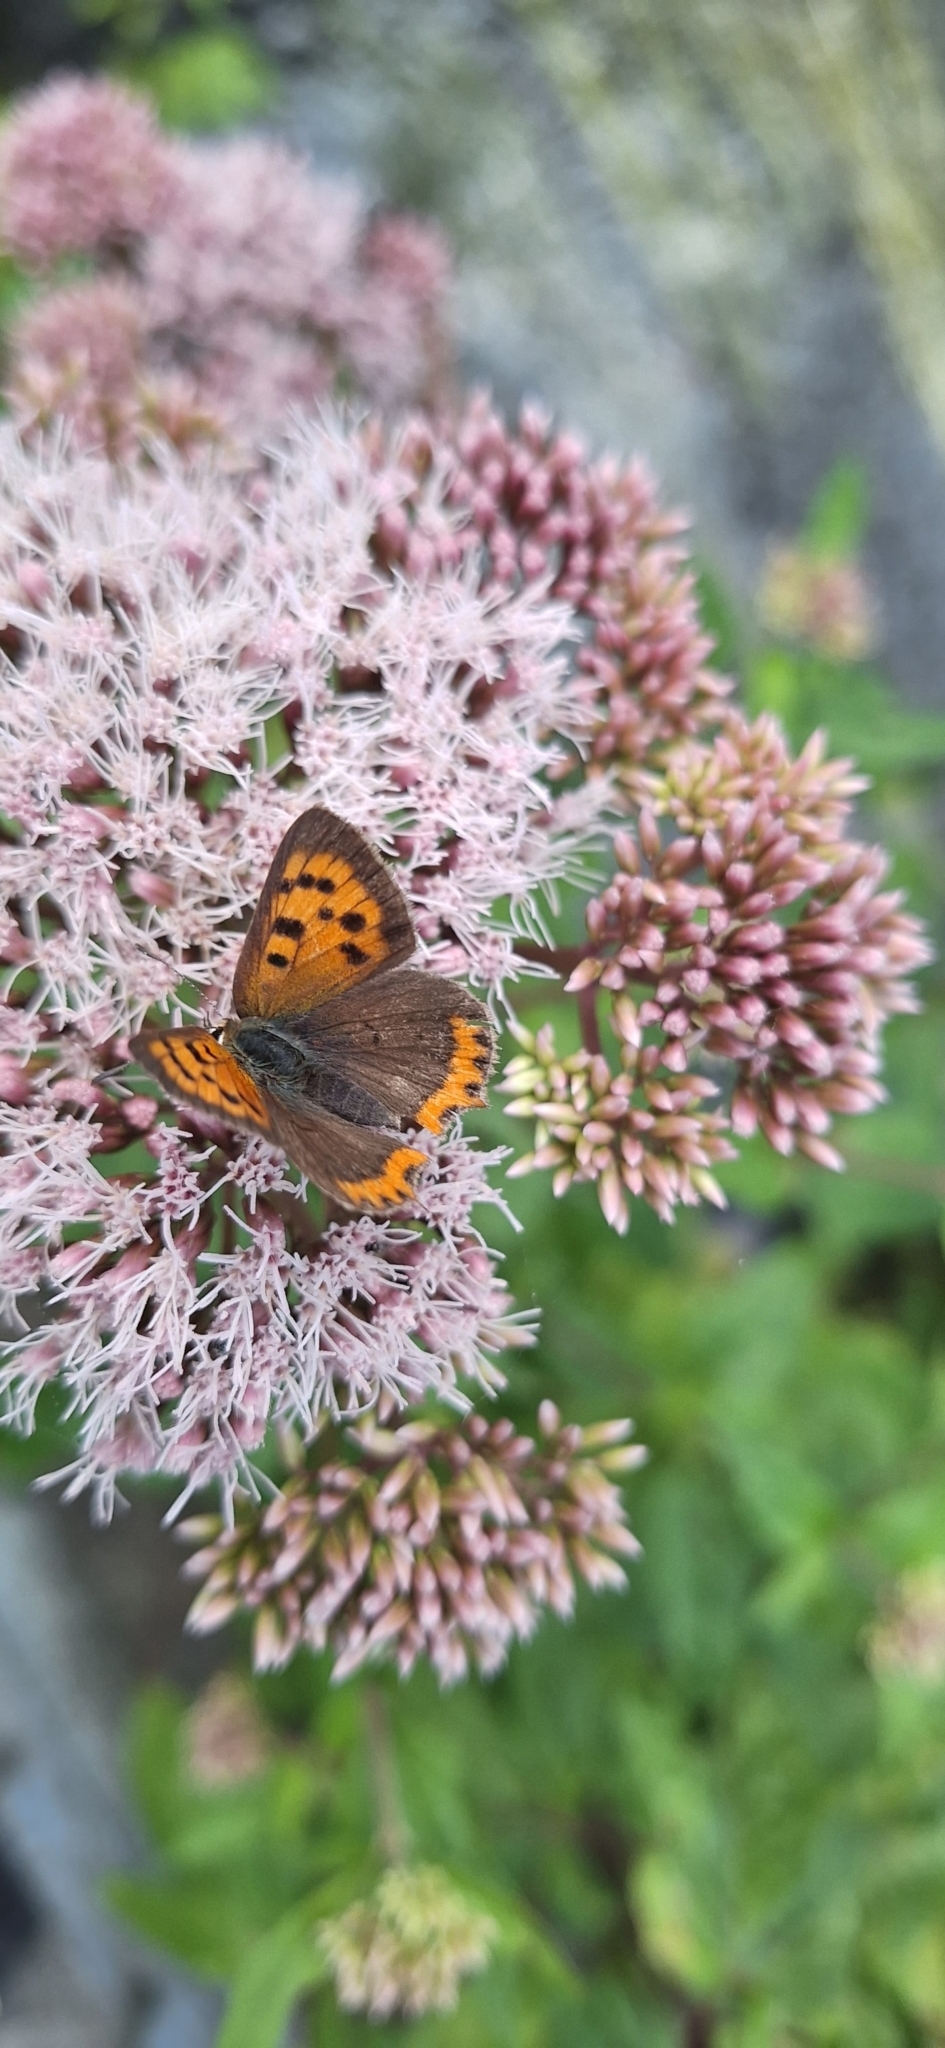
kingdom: Animalia
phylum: Arthropoda
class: Insecta
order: Lepidoptera
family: Lycaenidae
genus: Lycaena
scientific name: Lycaena phlaeas
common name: Small copper
